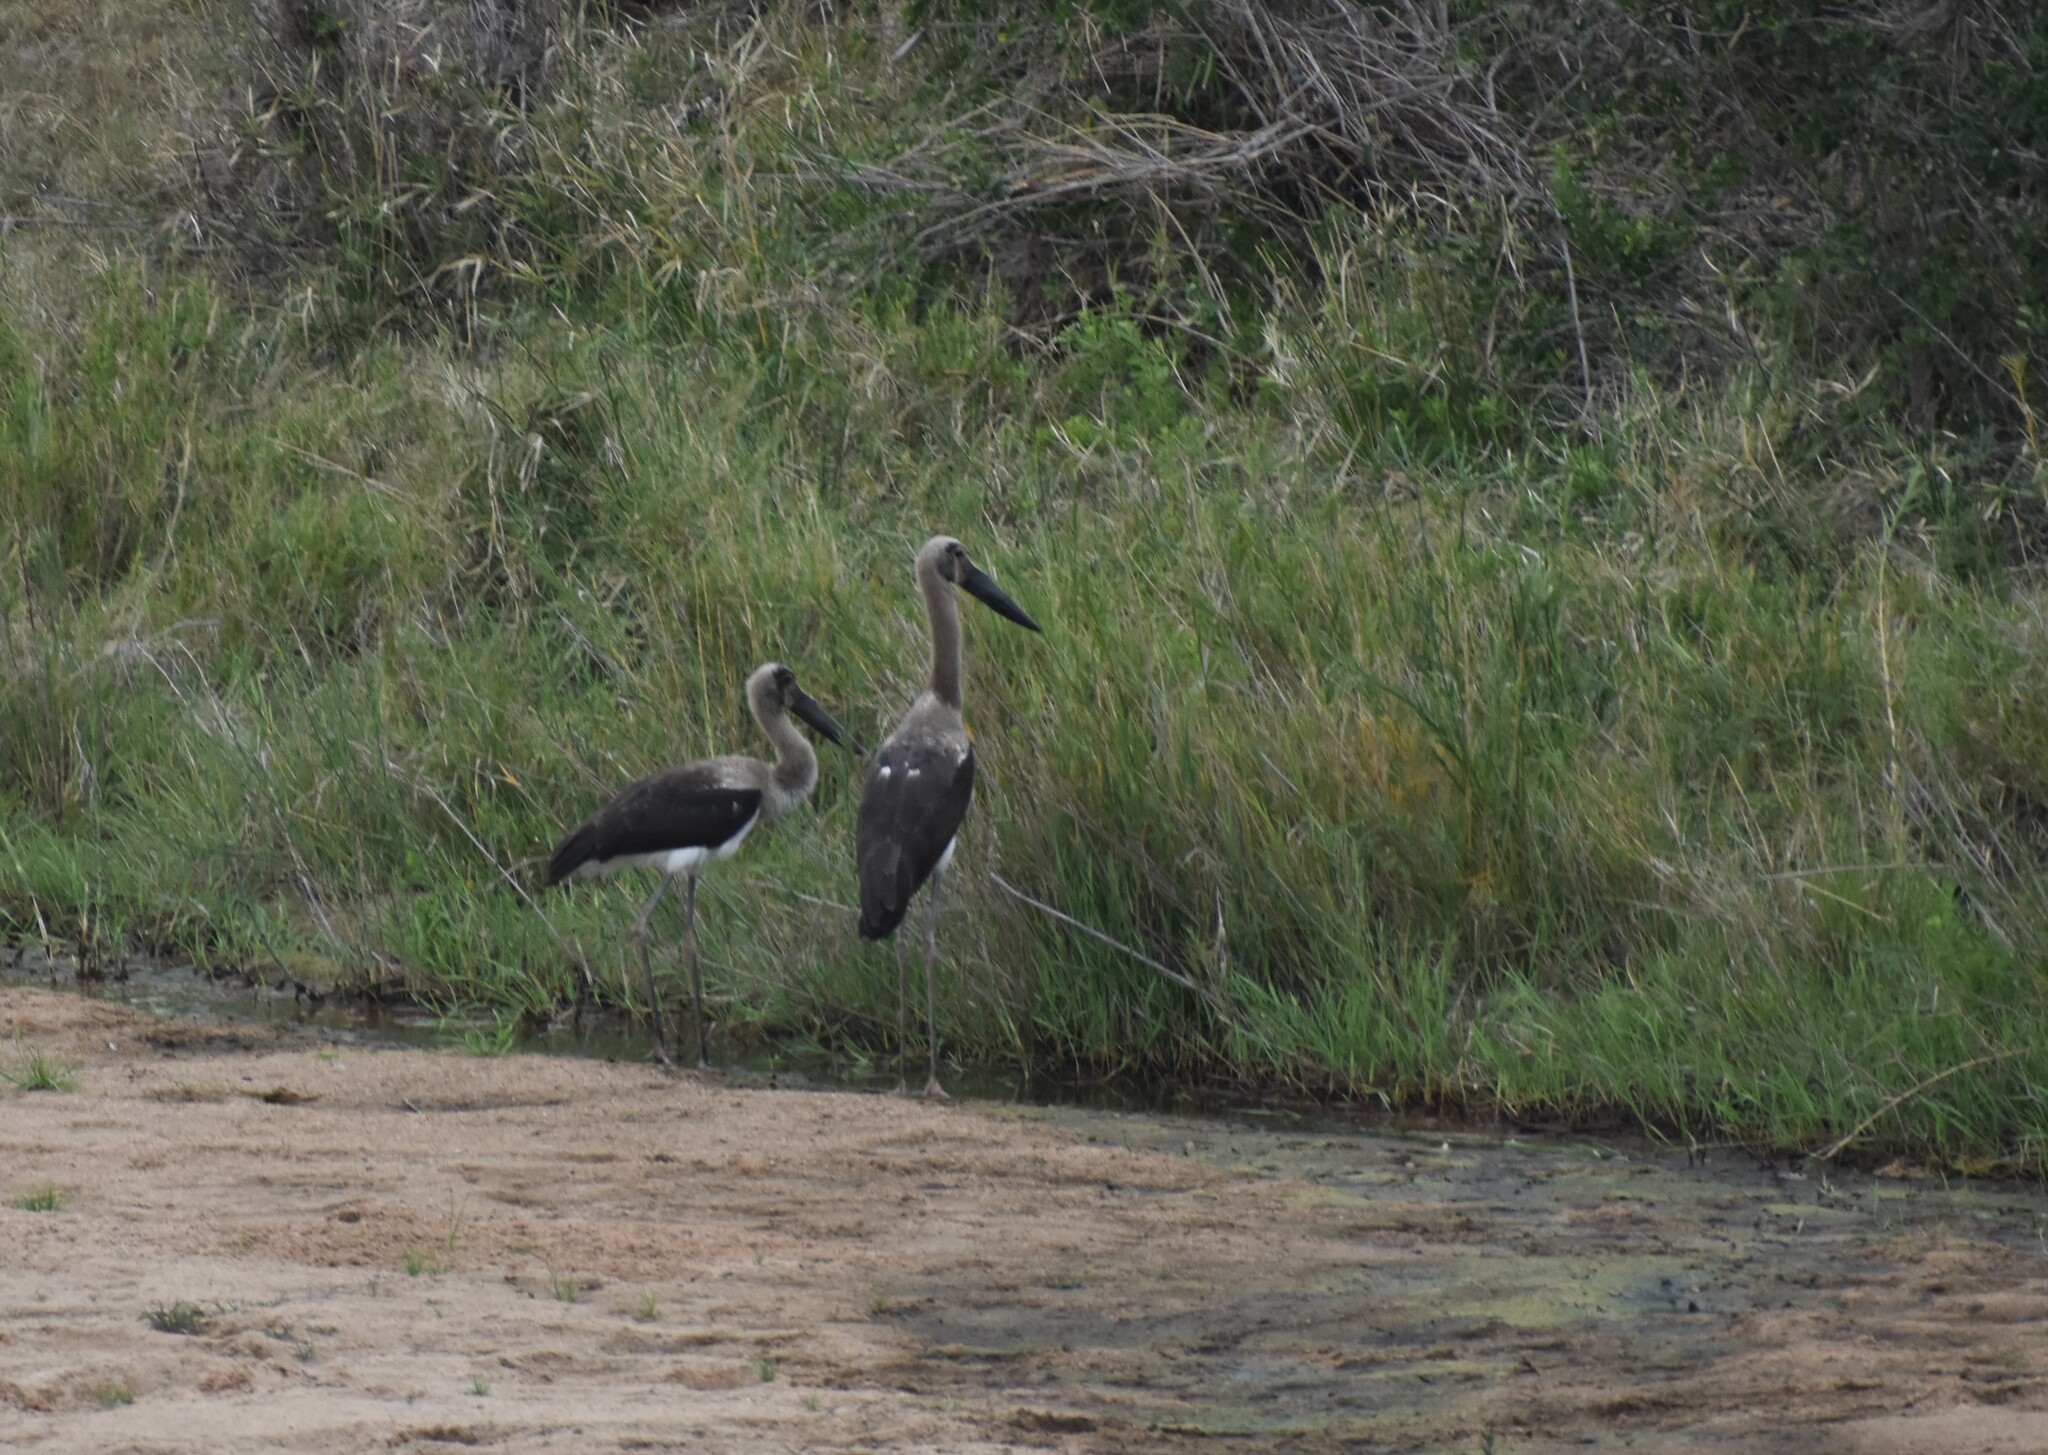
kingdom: Animalia
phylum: Chordata
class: Aves
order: Ciconiiformes
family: Ciconiidae
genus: Ephippiorhynchus
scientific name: Ephippiorhynchus senegalensis
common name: Saddle-billed stork
